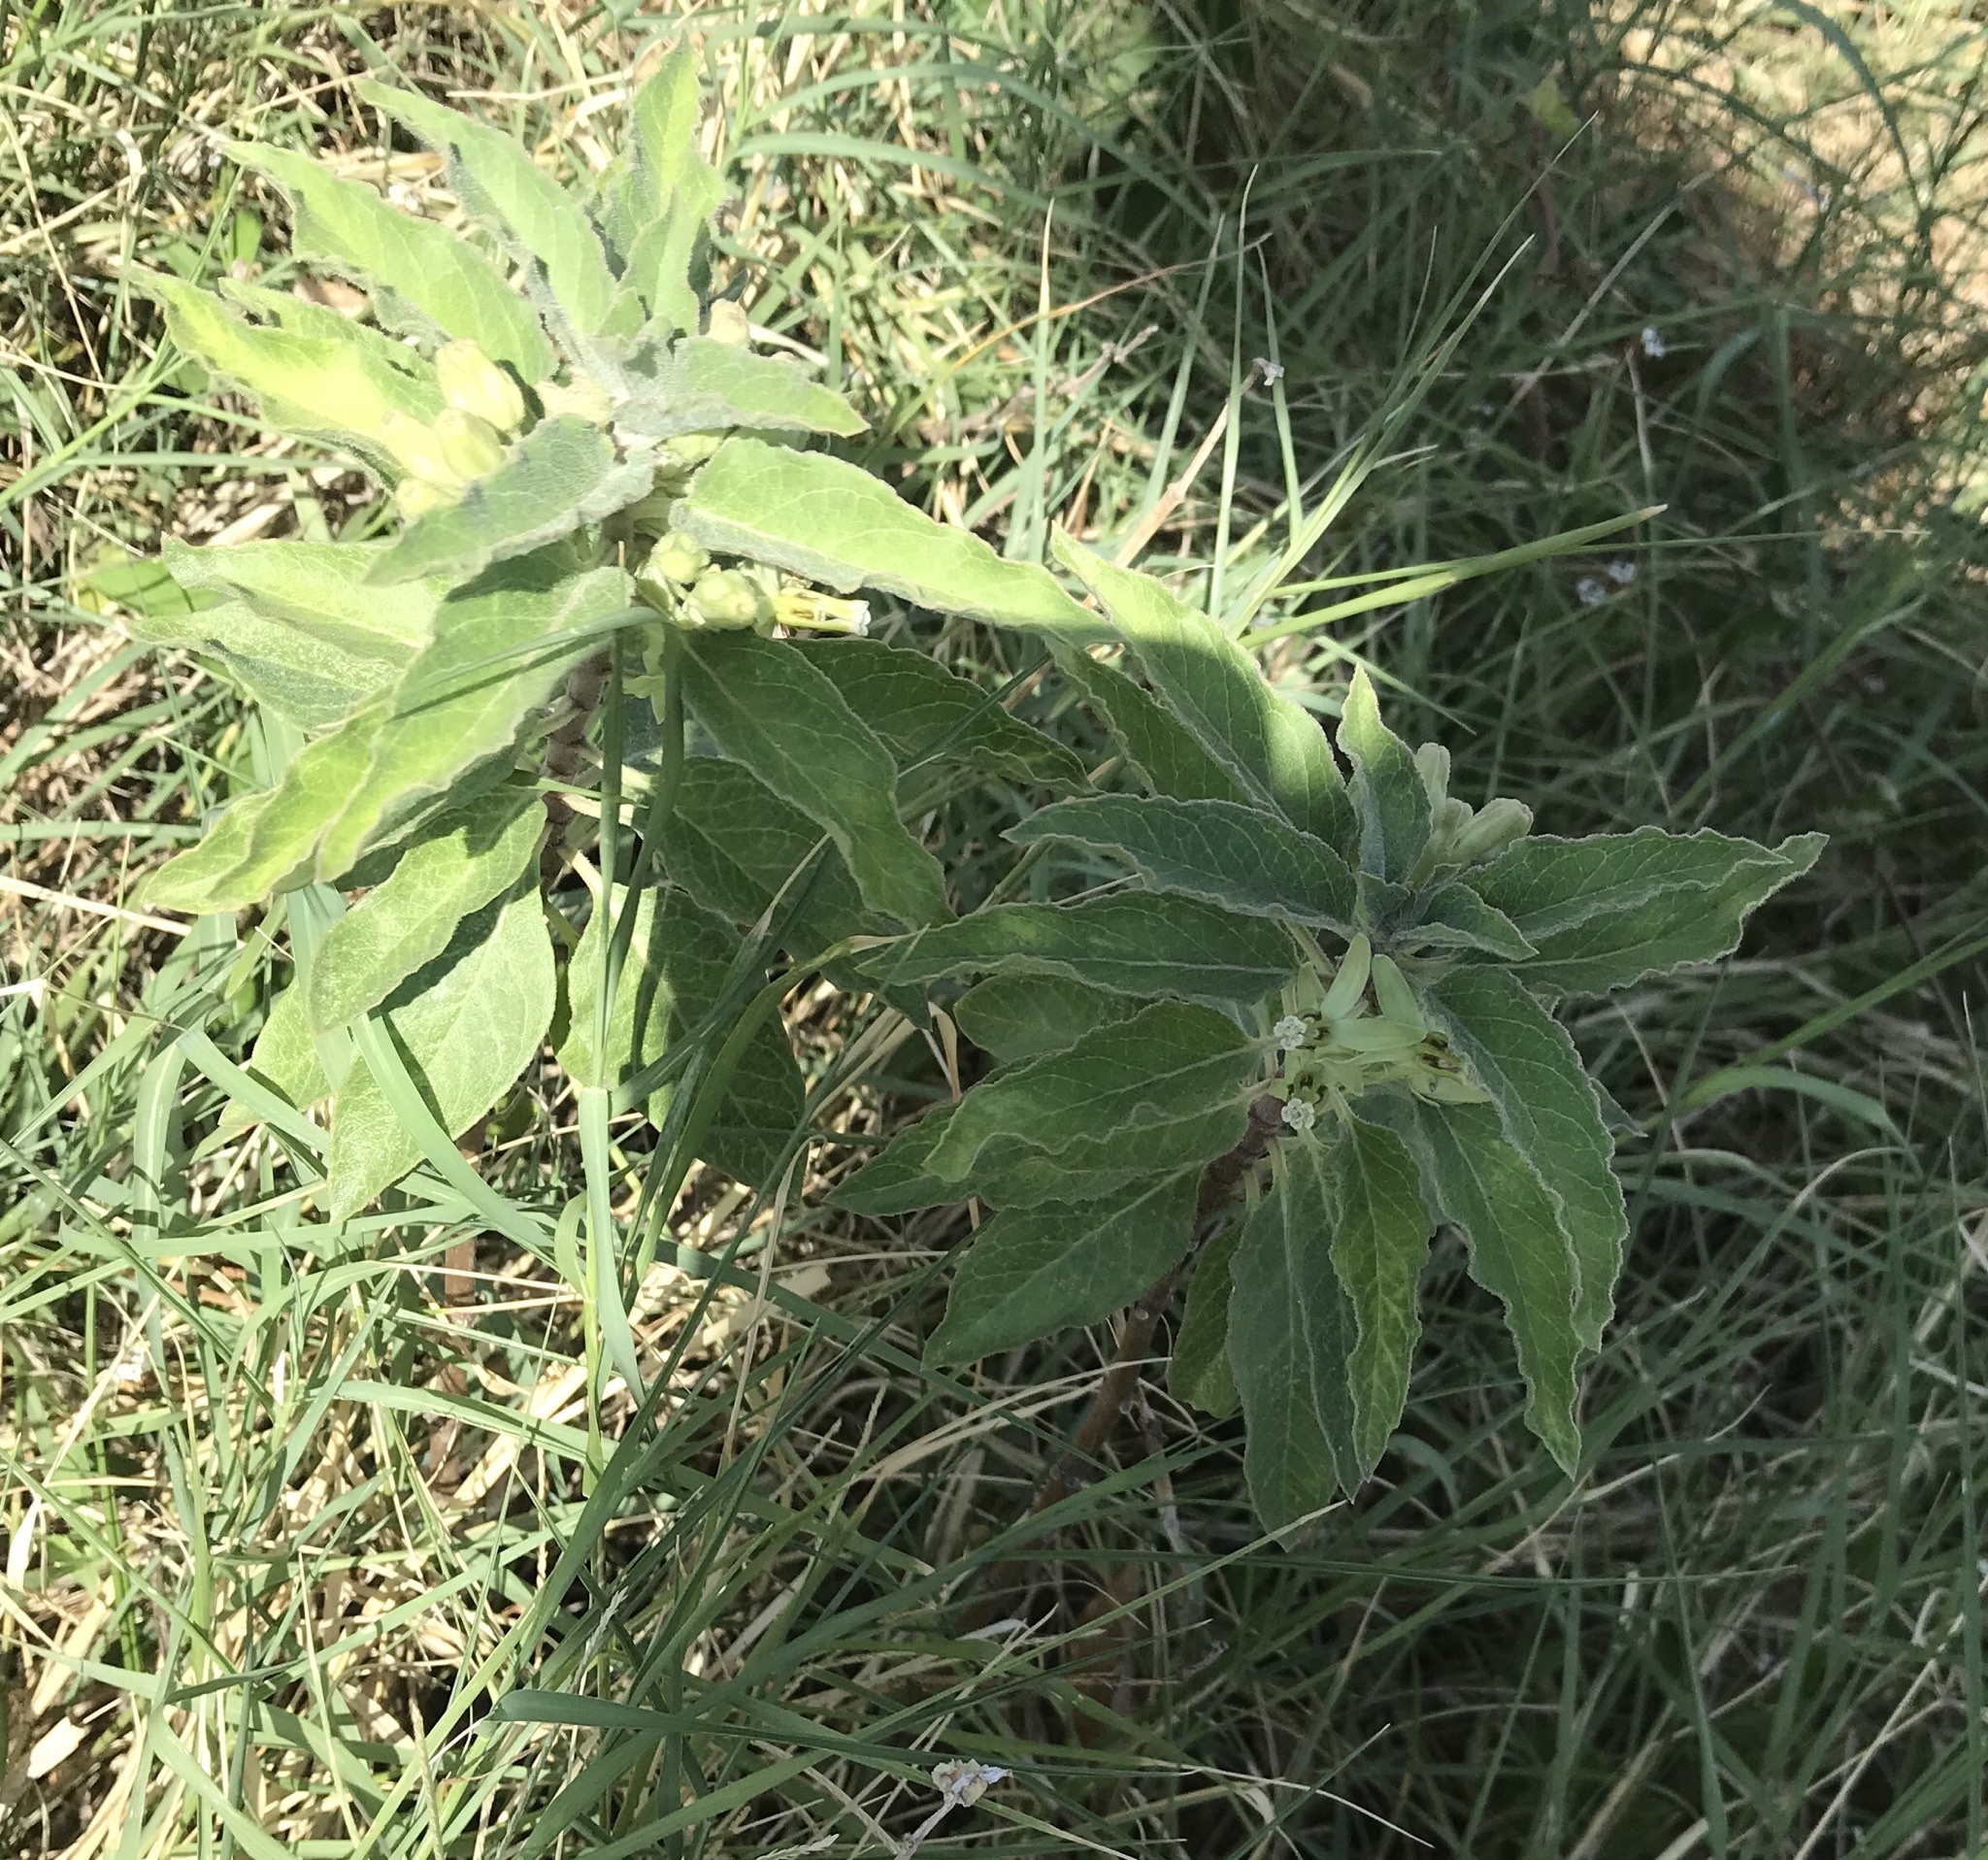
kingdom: Plantae
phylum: Tracheophyta
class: Magnoliopsida
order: Gentianales
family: Apocynaceae
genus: Asclepias
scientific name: Asclepias oenotheroides
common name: Zizotes milkweed
